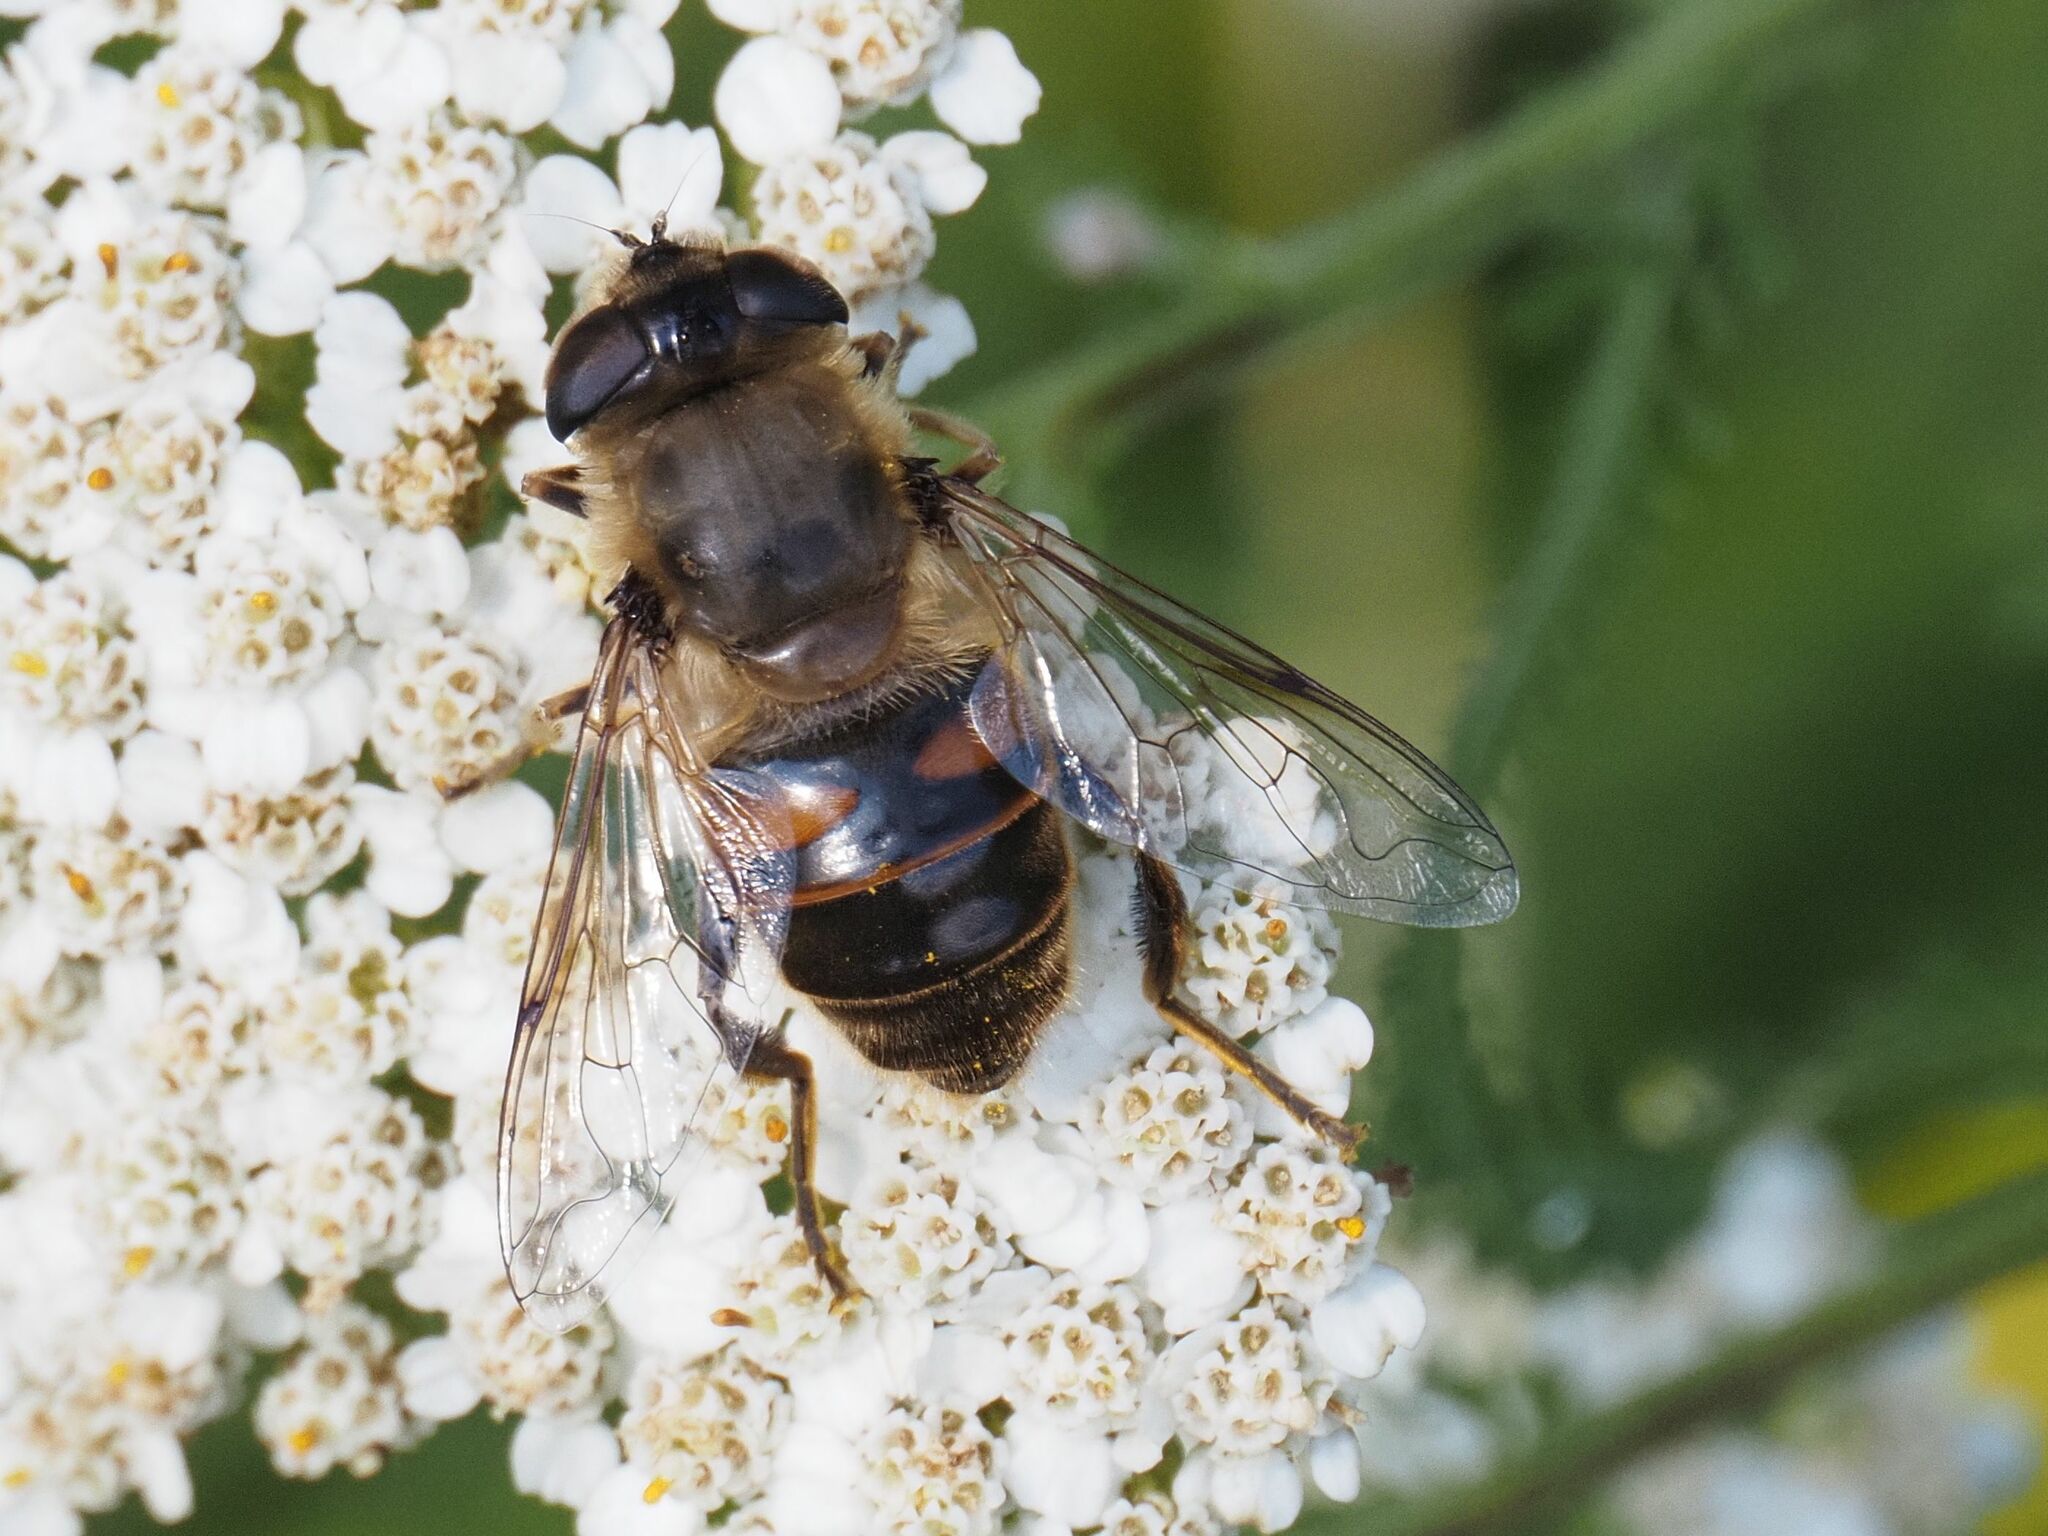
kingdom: Animalia
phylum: Arthropoda
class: Insecta
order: Diptera
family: Syrphidae
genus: Eristalis
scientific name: Eristalis tenax
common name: Drone fly
